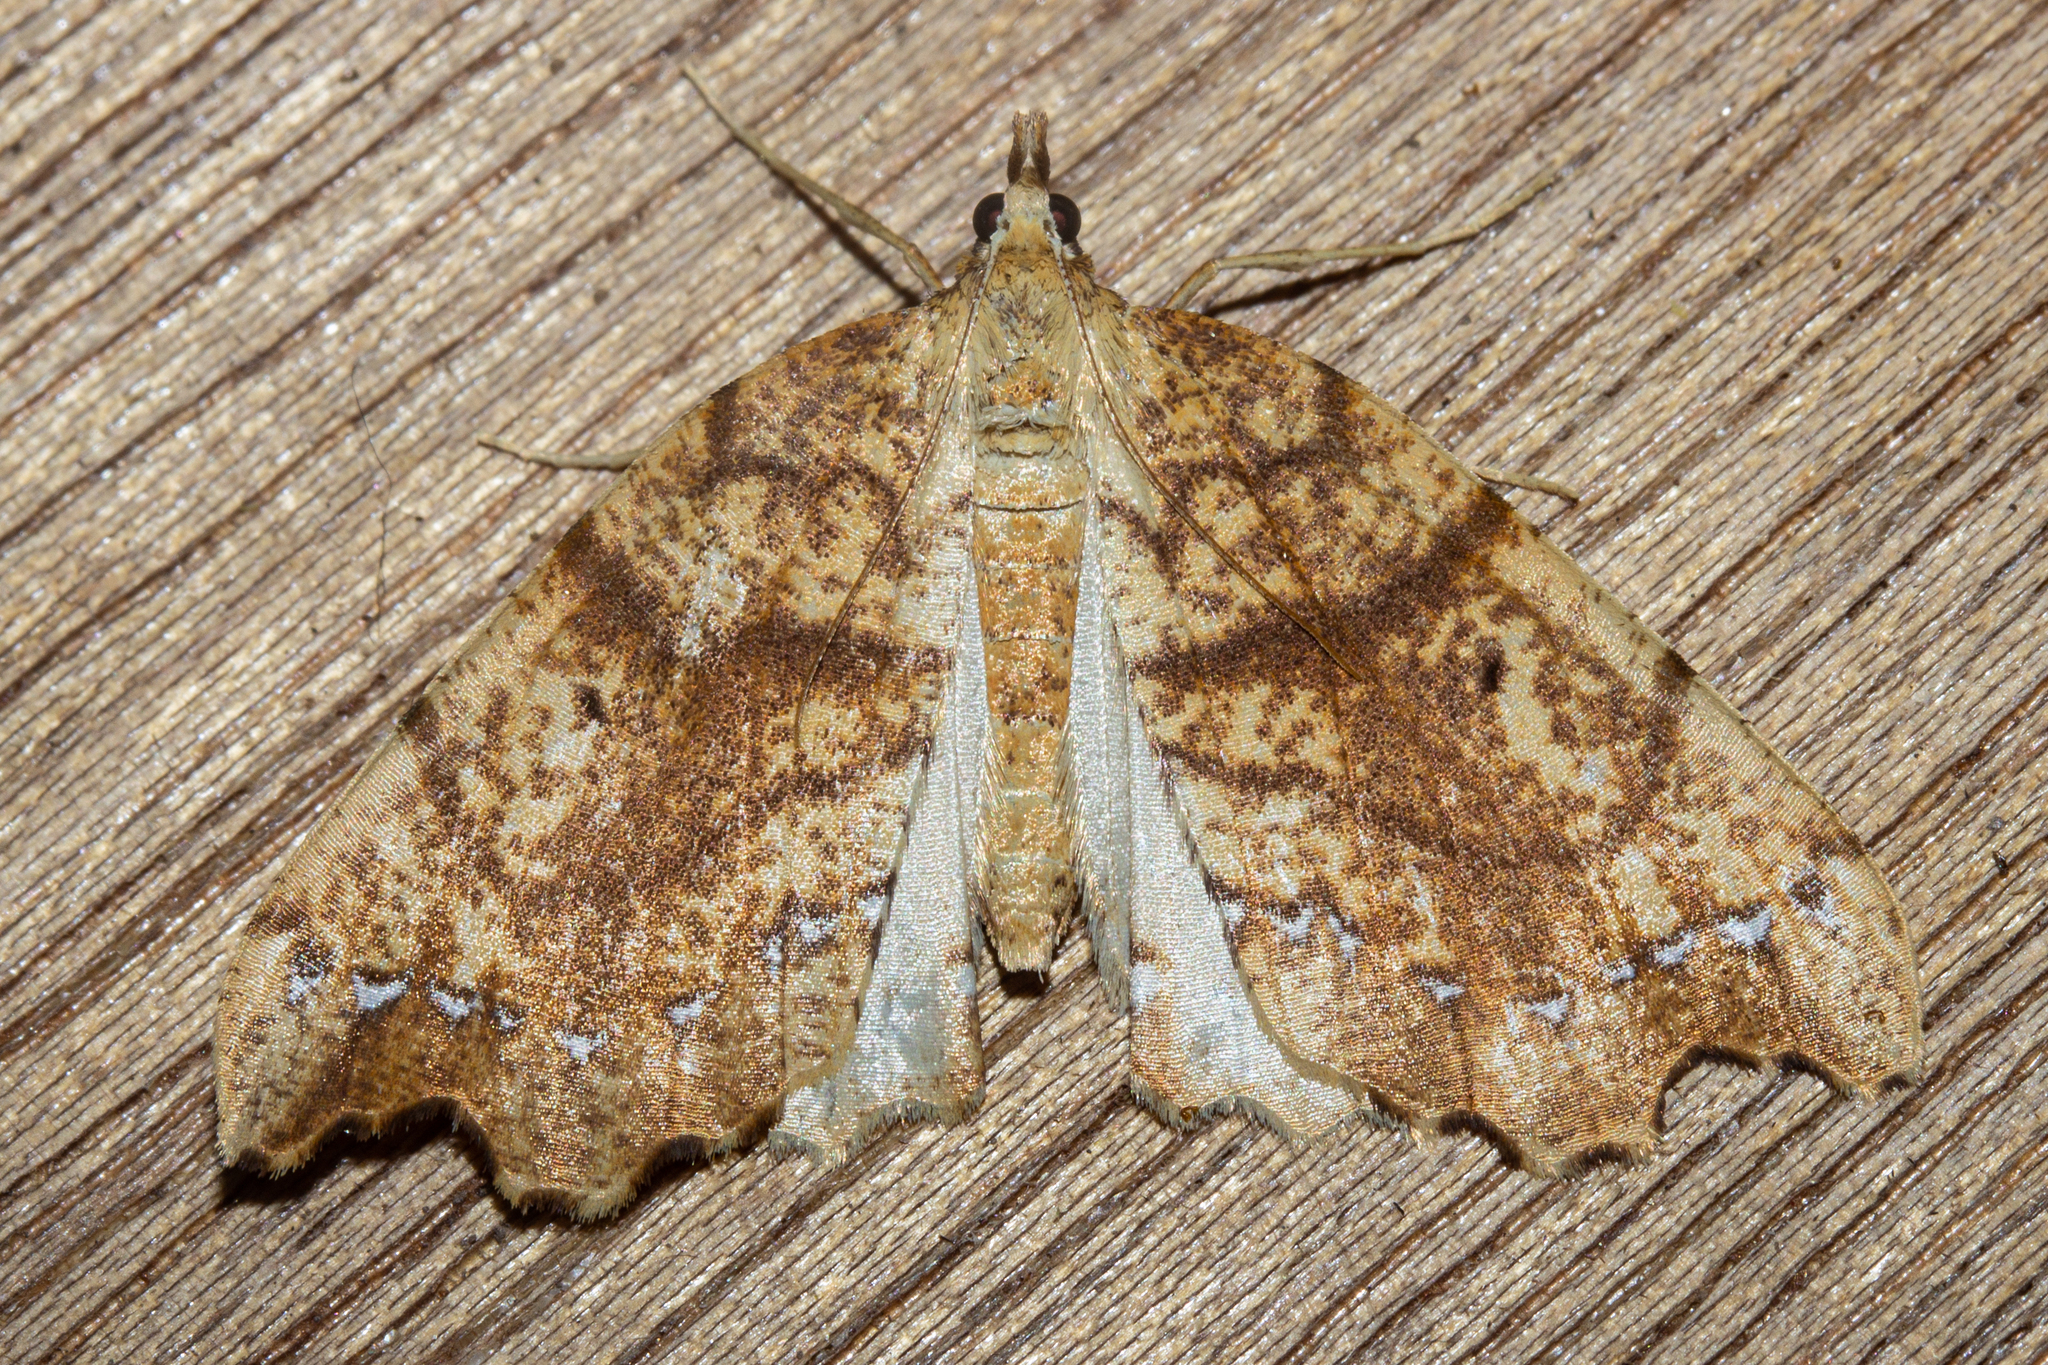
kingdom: Animalia
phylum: Arthropoda
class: Insecta
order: Lepidoptera
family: Geometridae
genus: Chalastra
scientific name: Chalastra pellurgata
